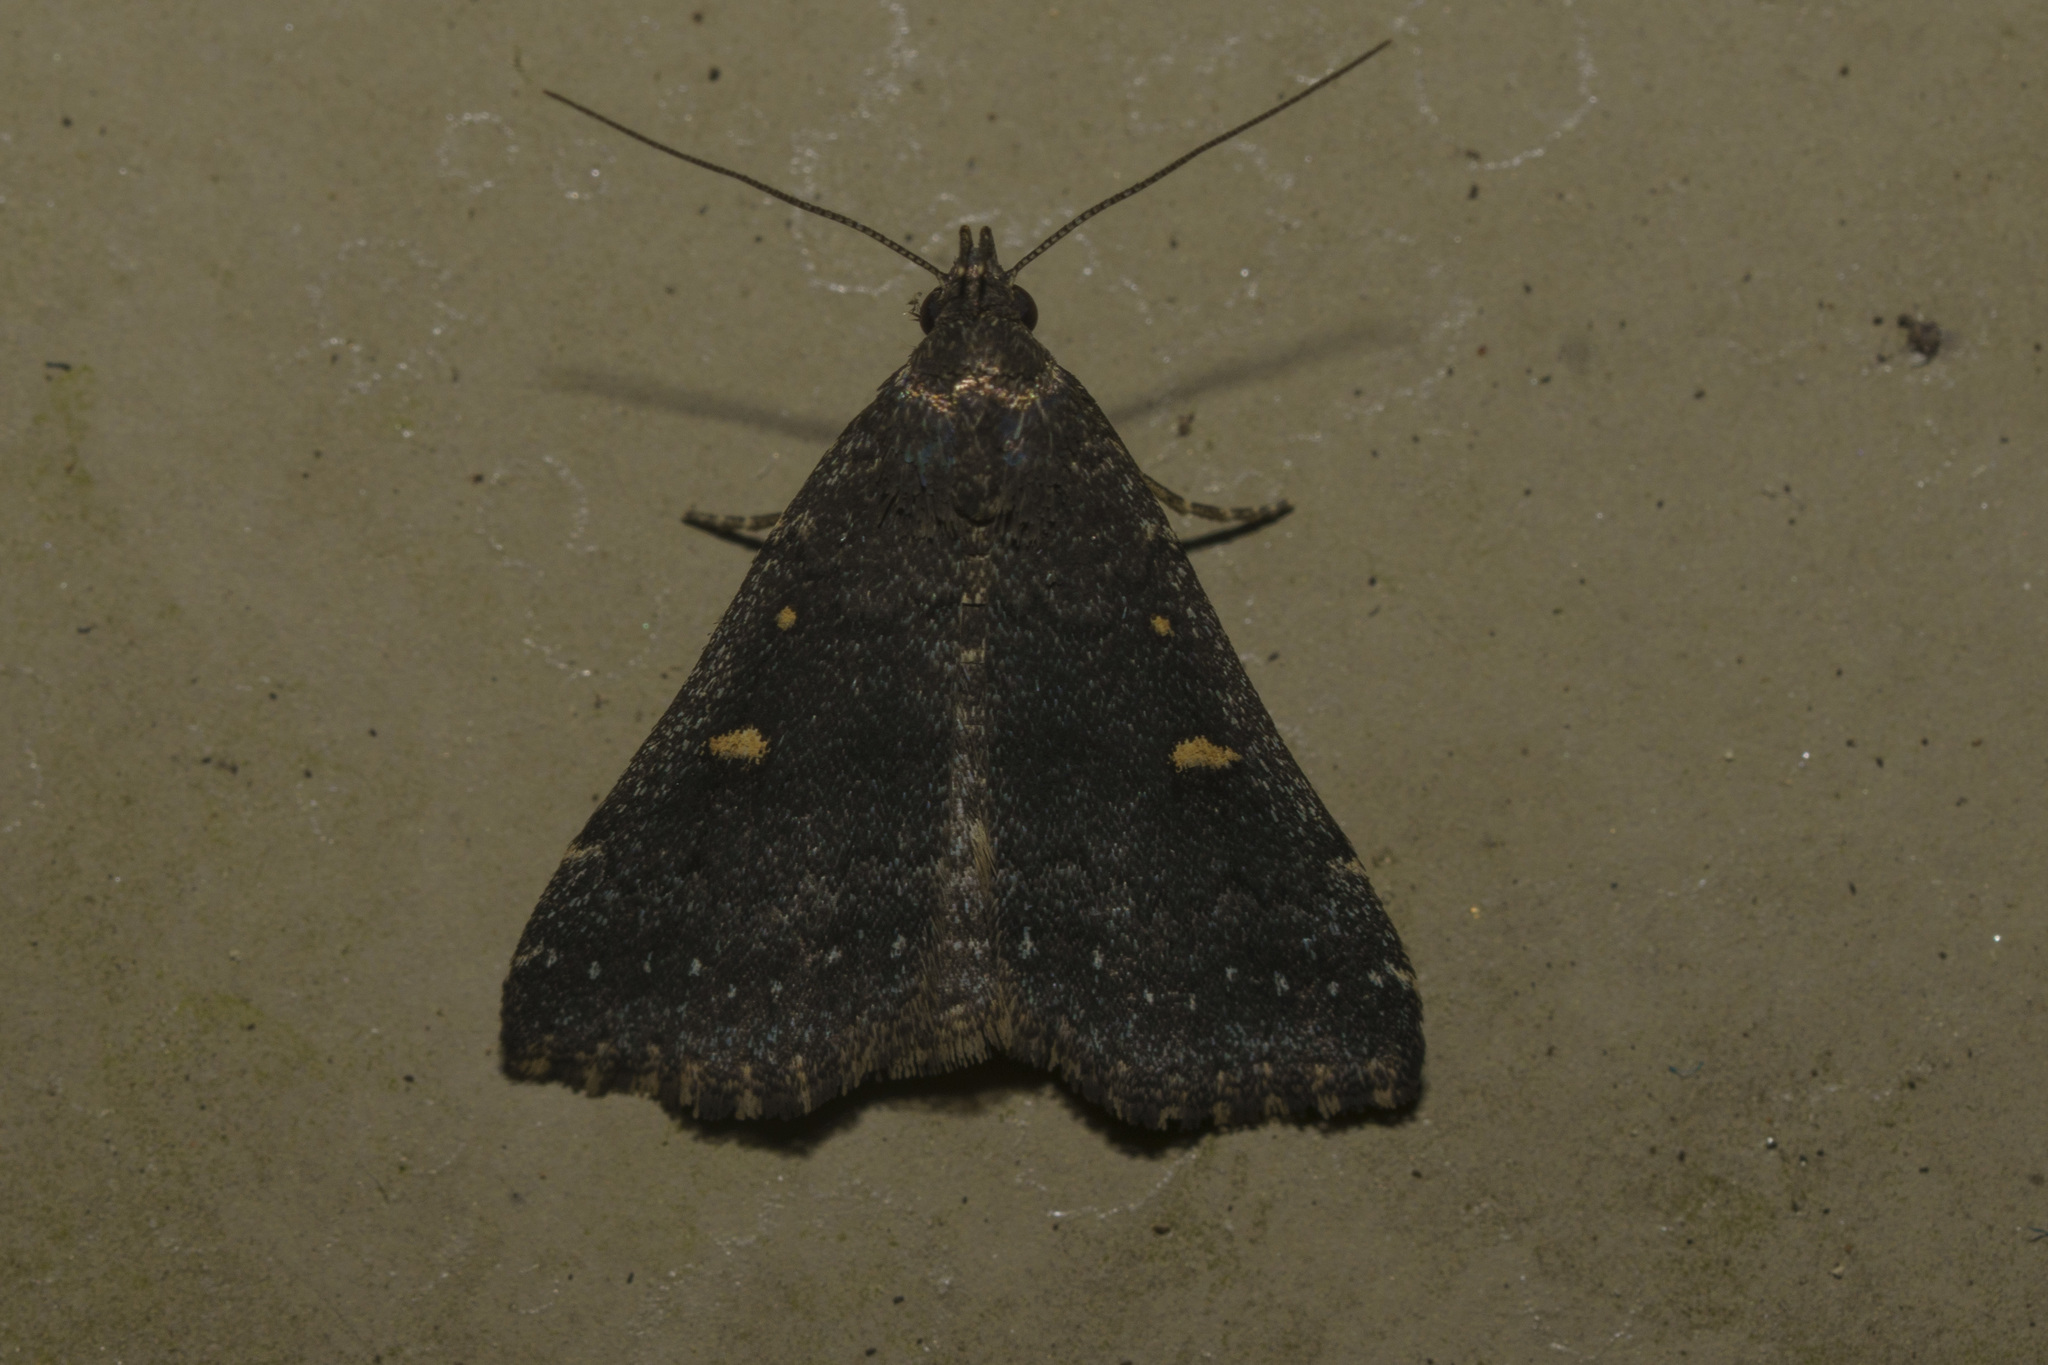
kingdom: Animalia
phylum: Arthropoda
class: Insecta
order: Lepidoptera
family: Erebidae
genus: Tetanolita
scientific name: Tetanolita mynesalis
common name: Smoky tetanolita moth
